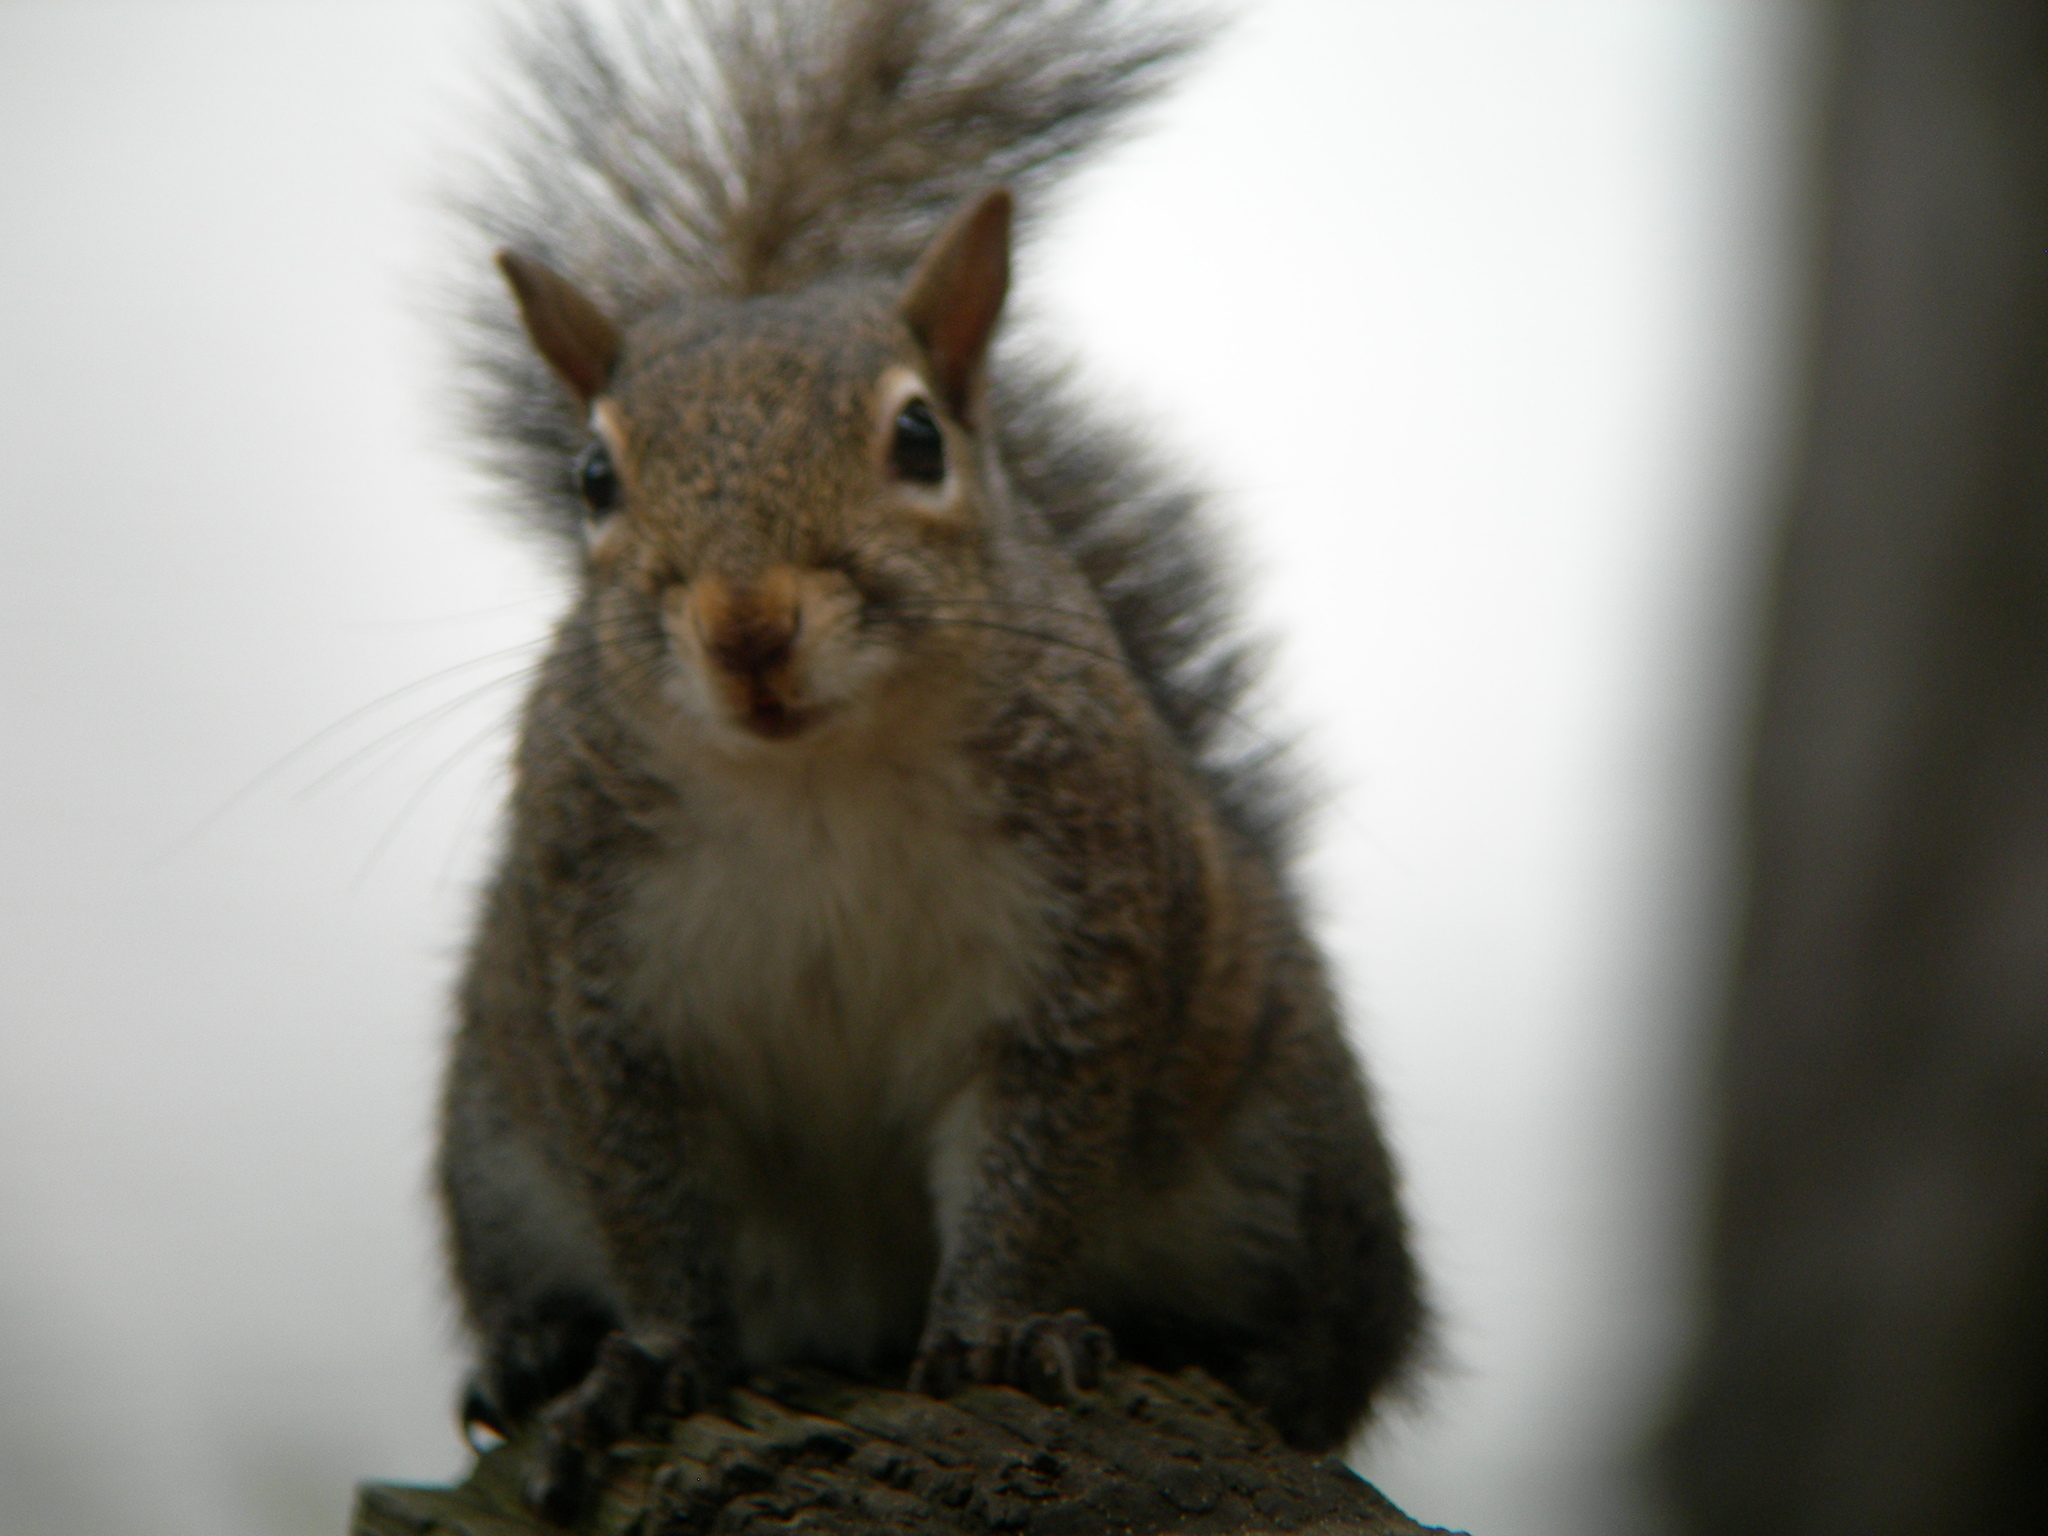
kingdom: Animalia
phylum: Chordata
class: Mammalia
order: Rodentia
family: Sciuridae
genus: Sciurus
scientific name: Sciurus carolinensis
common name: Eastern gray squirrel
